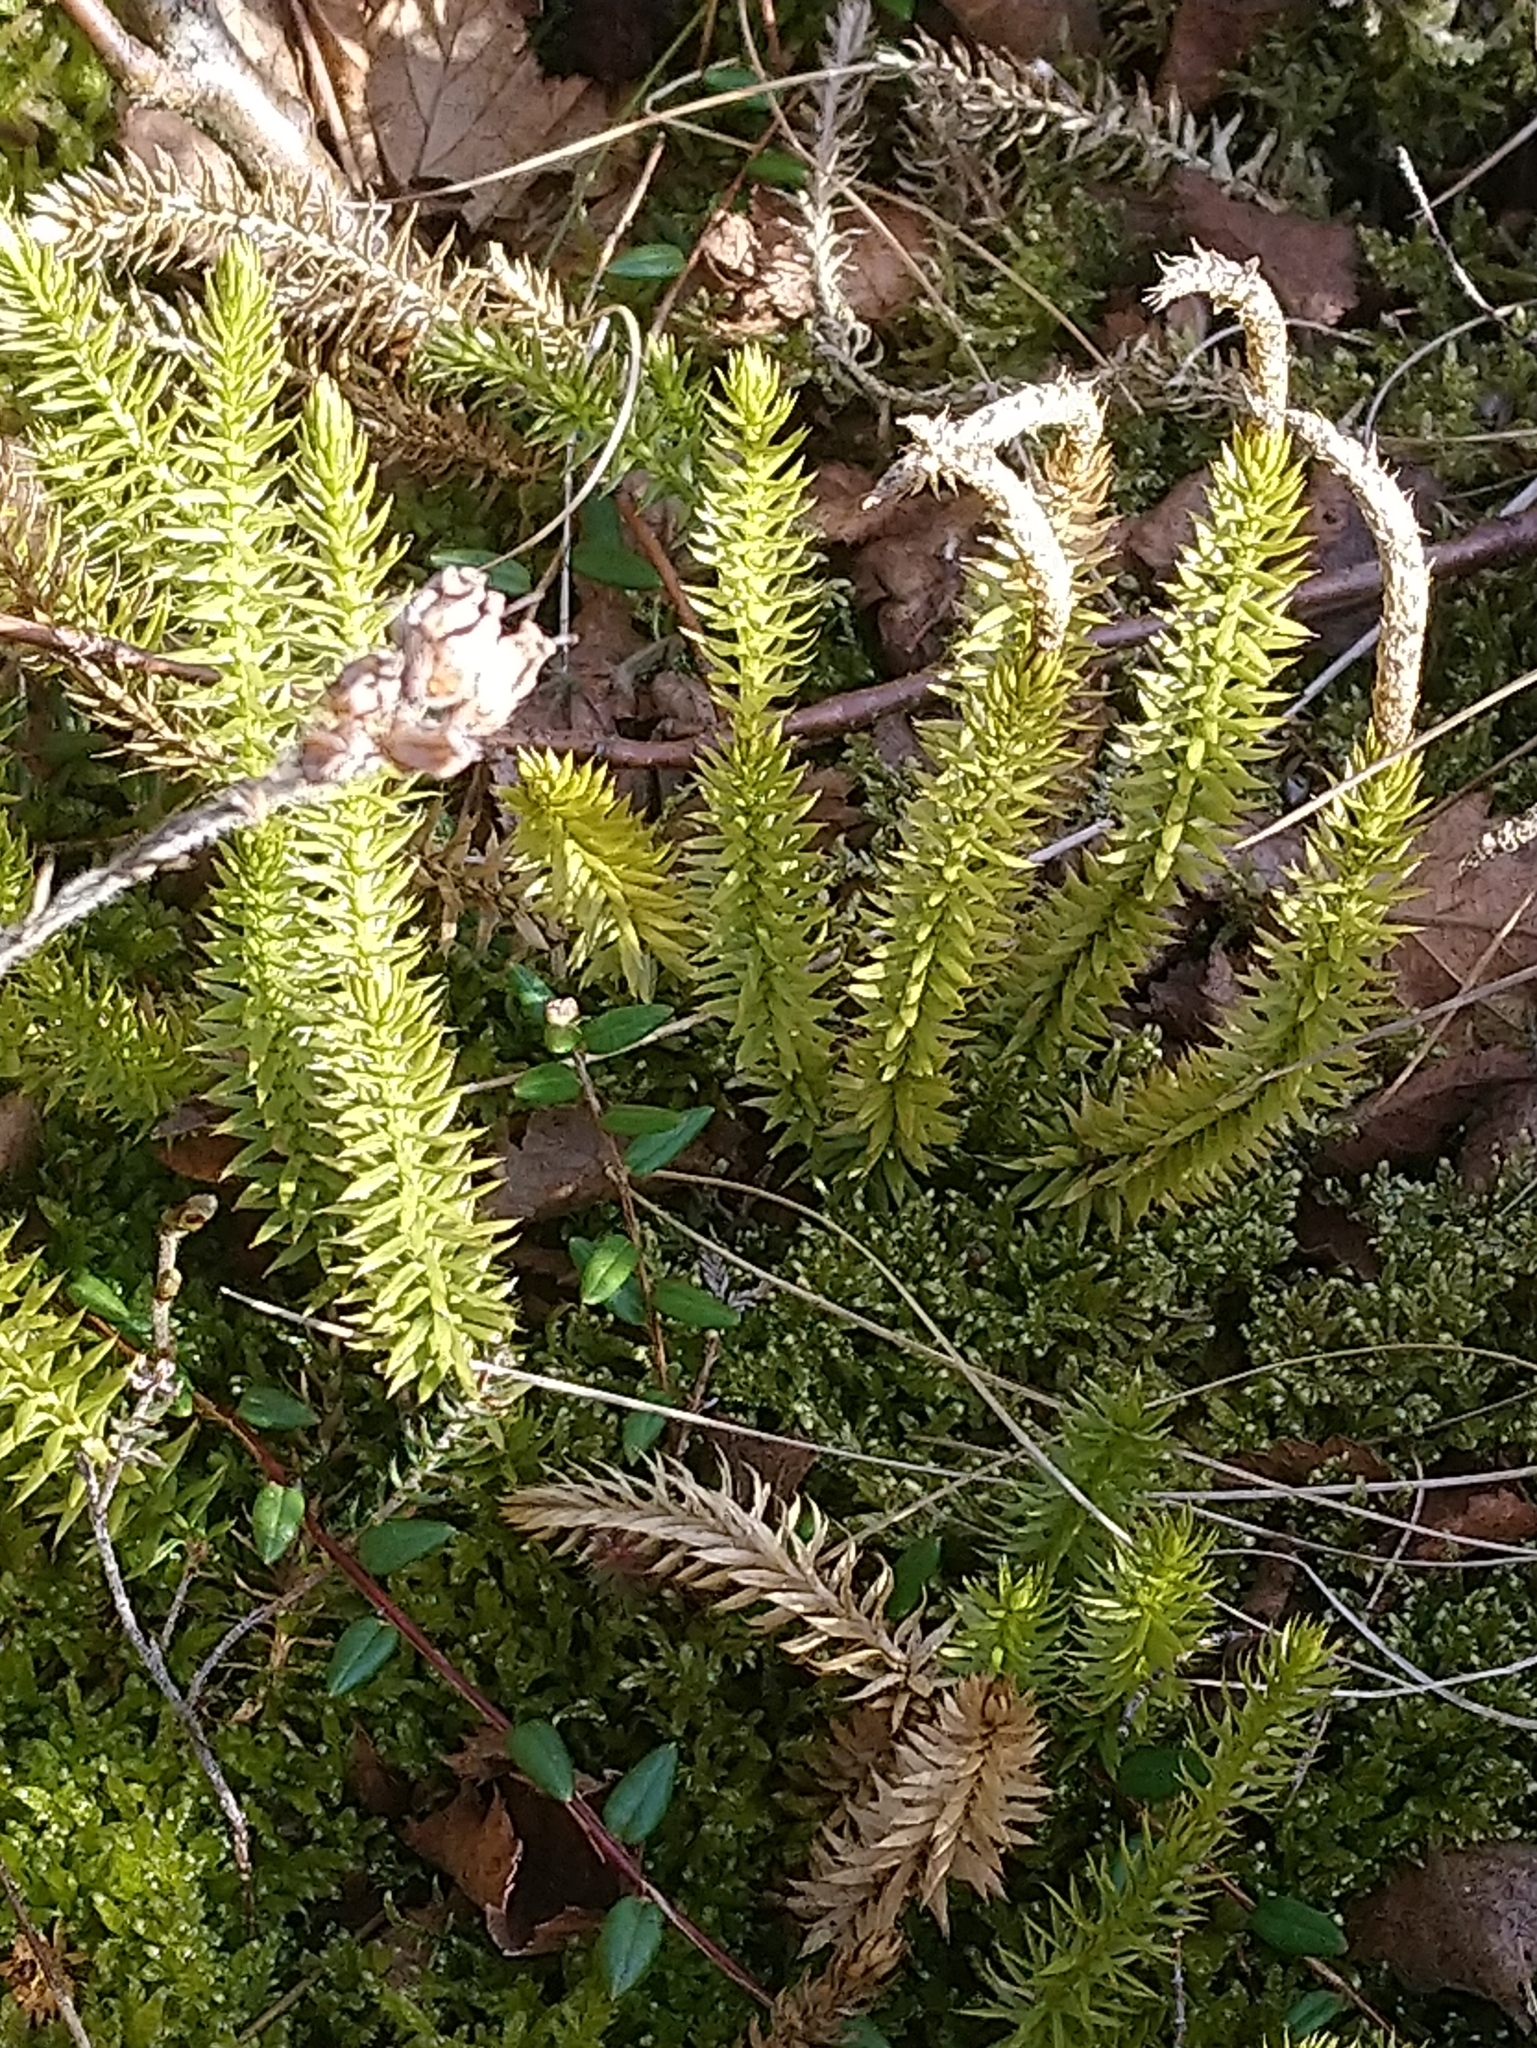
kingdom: Plantae
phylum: Tracheophyta
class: Lycopodiopsida
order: Lycopodiales
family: Lycopodiaceae
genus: Spinulum
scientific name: Spinulum annotinum
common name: Interrupted club-moss
